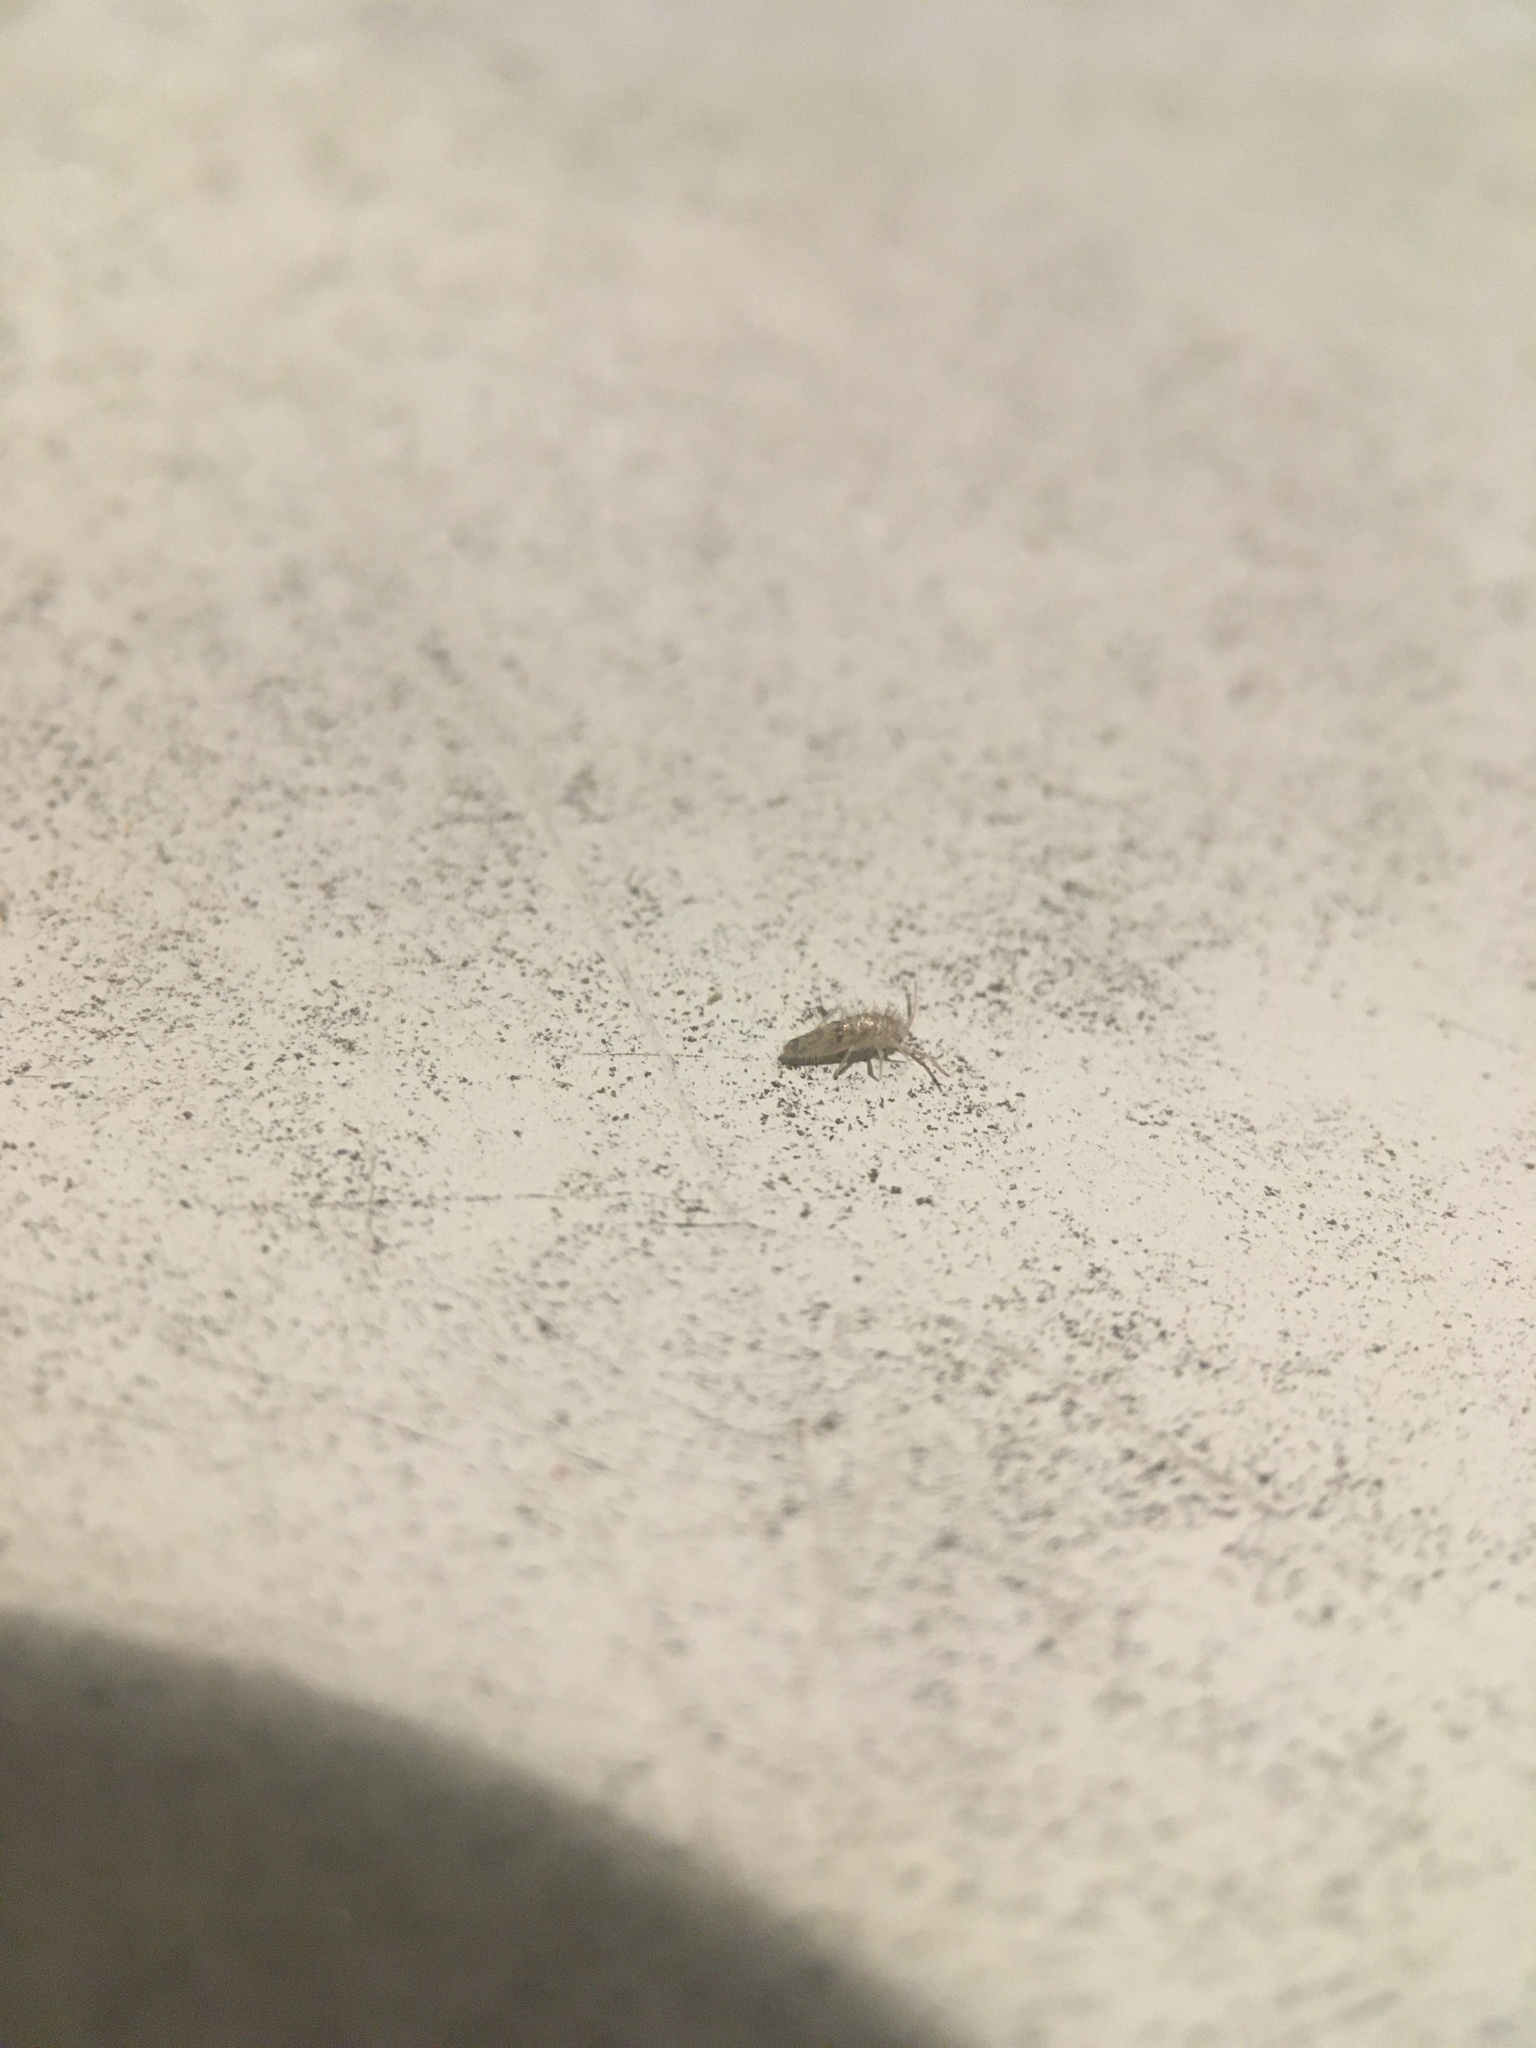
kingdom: Animalia
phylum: Arthropoda
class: Collembola
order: Entomobryomorpha
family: Entomobryidae
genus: Willowsia
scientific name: Willowsia nigromaculata
